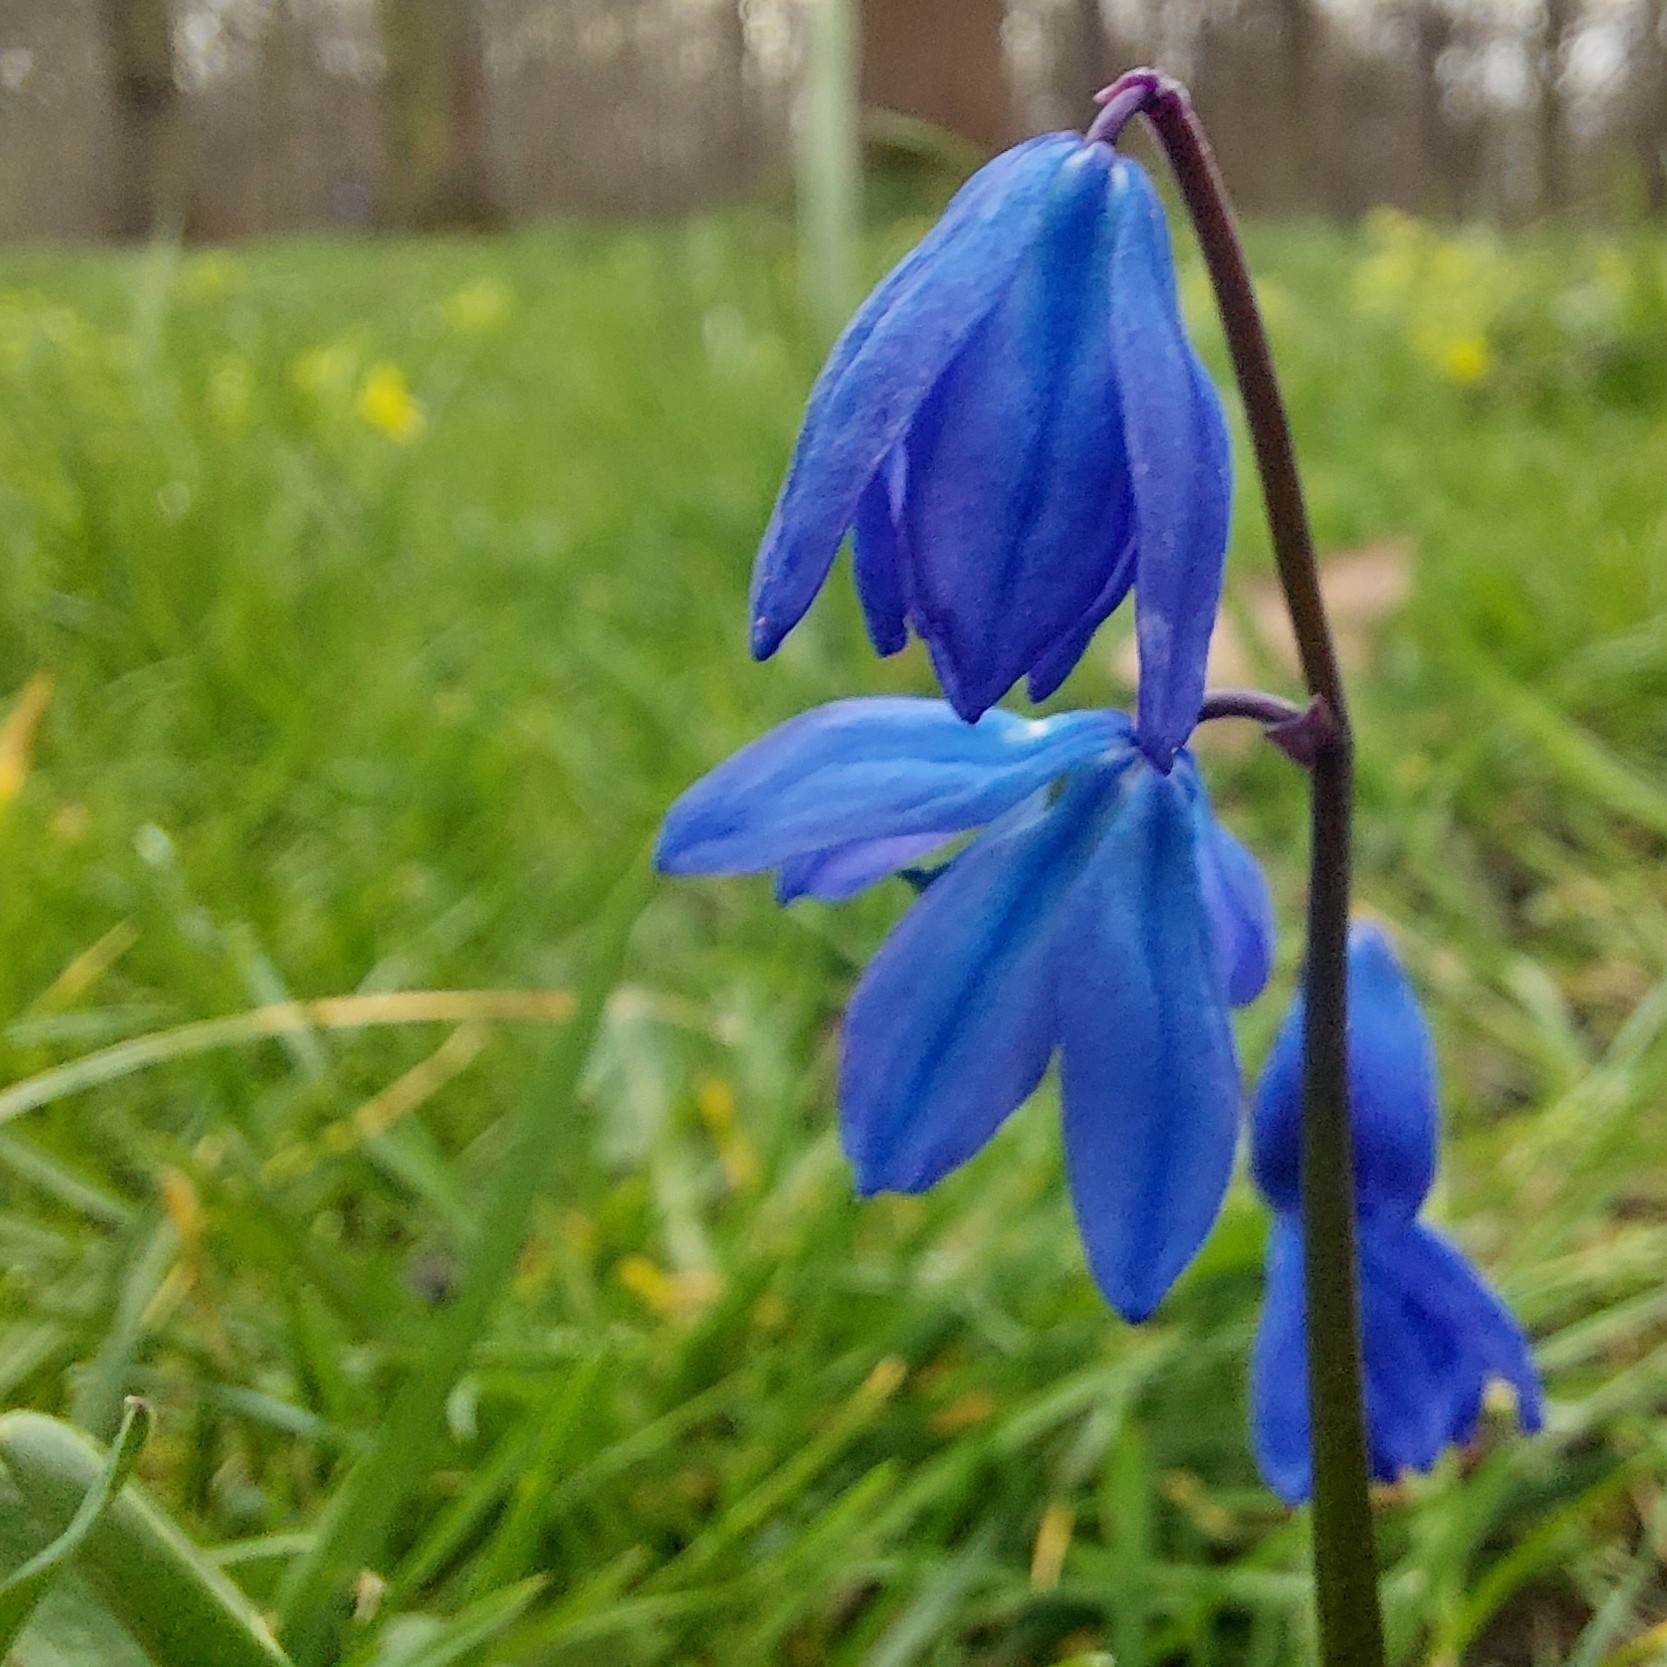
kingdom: Plantae
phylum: Tracheophyta
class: Liliopsida
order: Asparagales
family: Asparagaceae
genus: Scilla
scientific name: Scilla siberica
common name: Siberian squill
